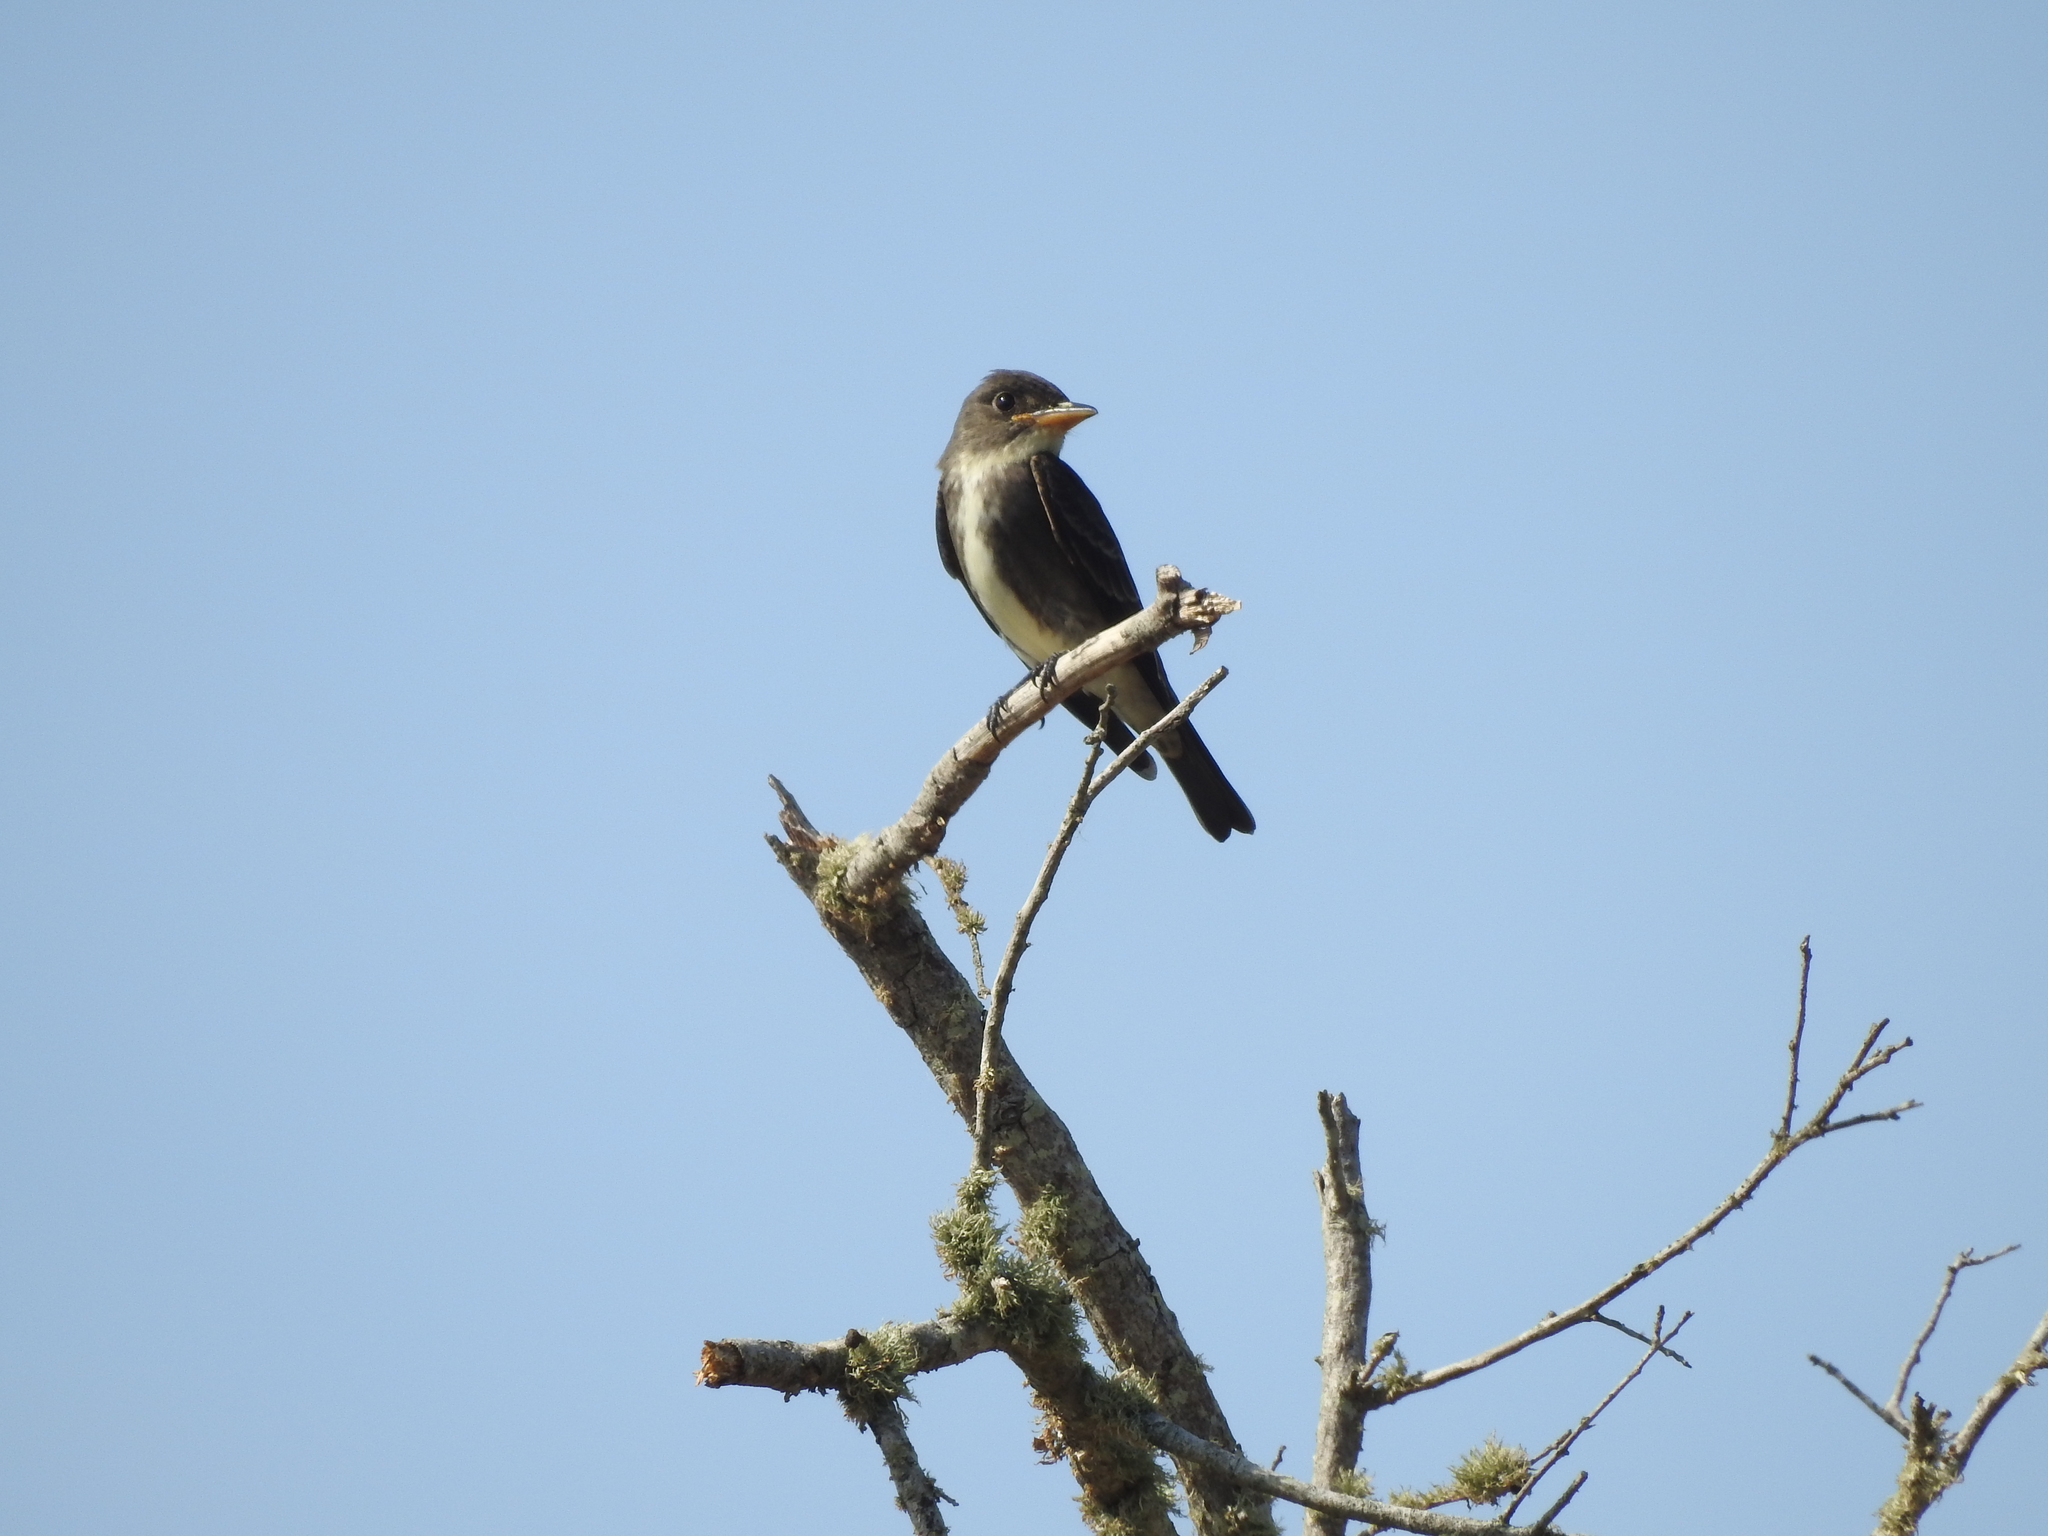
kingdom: Animalia
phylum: Chordata
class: Aves
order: Passeriformes
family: Tyrannidae
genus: Contopus
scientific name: Contopus cooperi
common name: Olive-sided flycatcher
